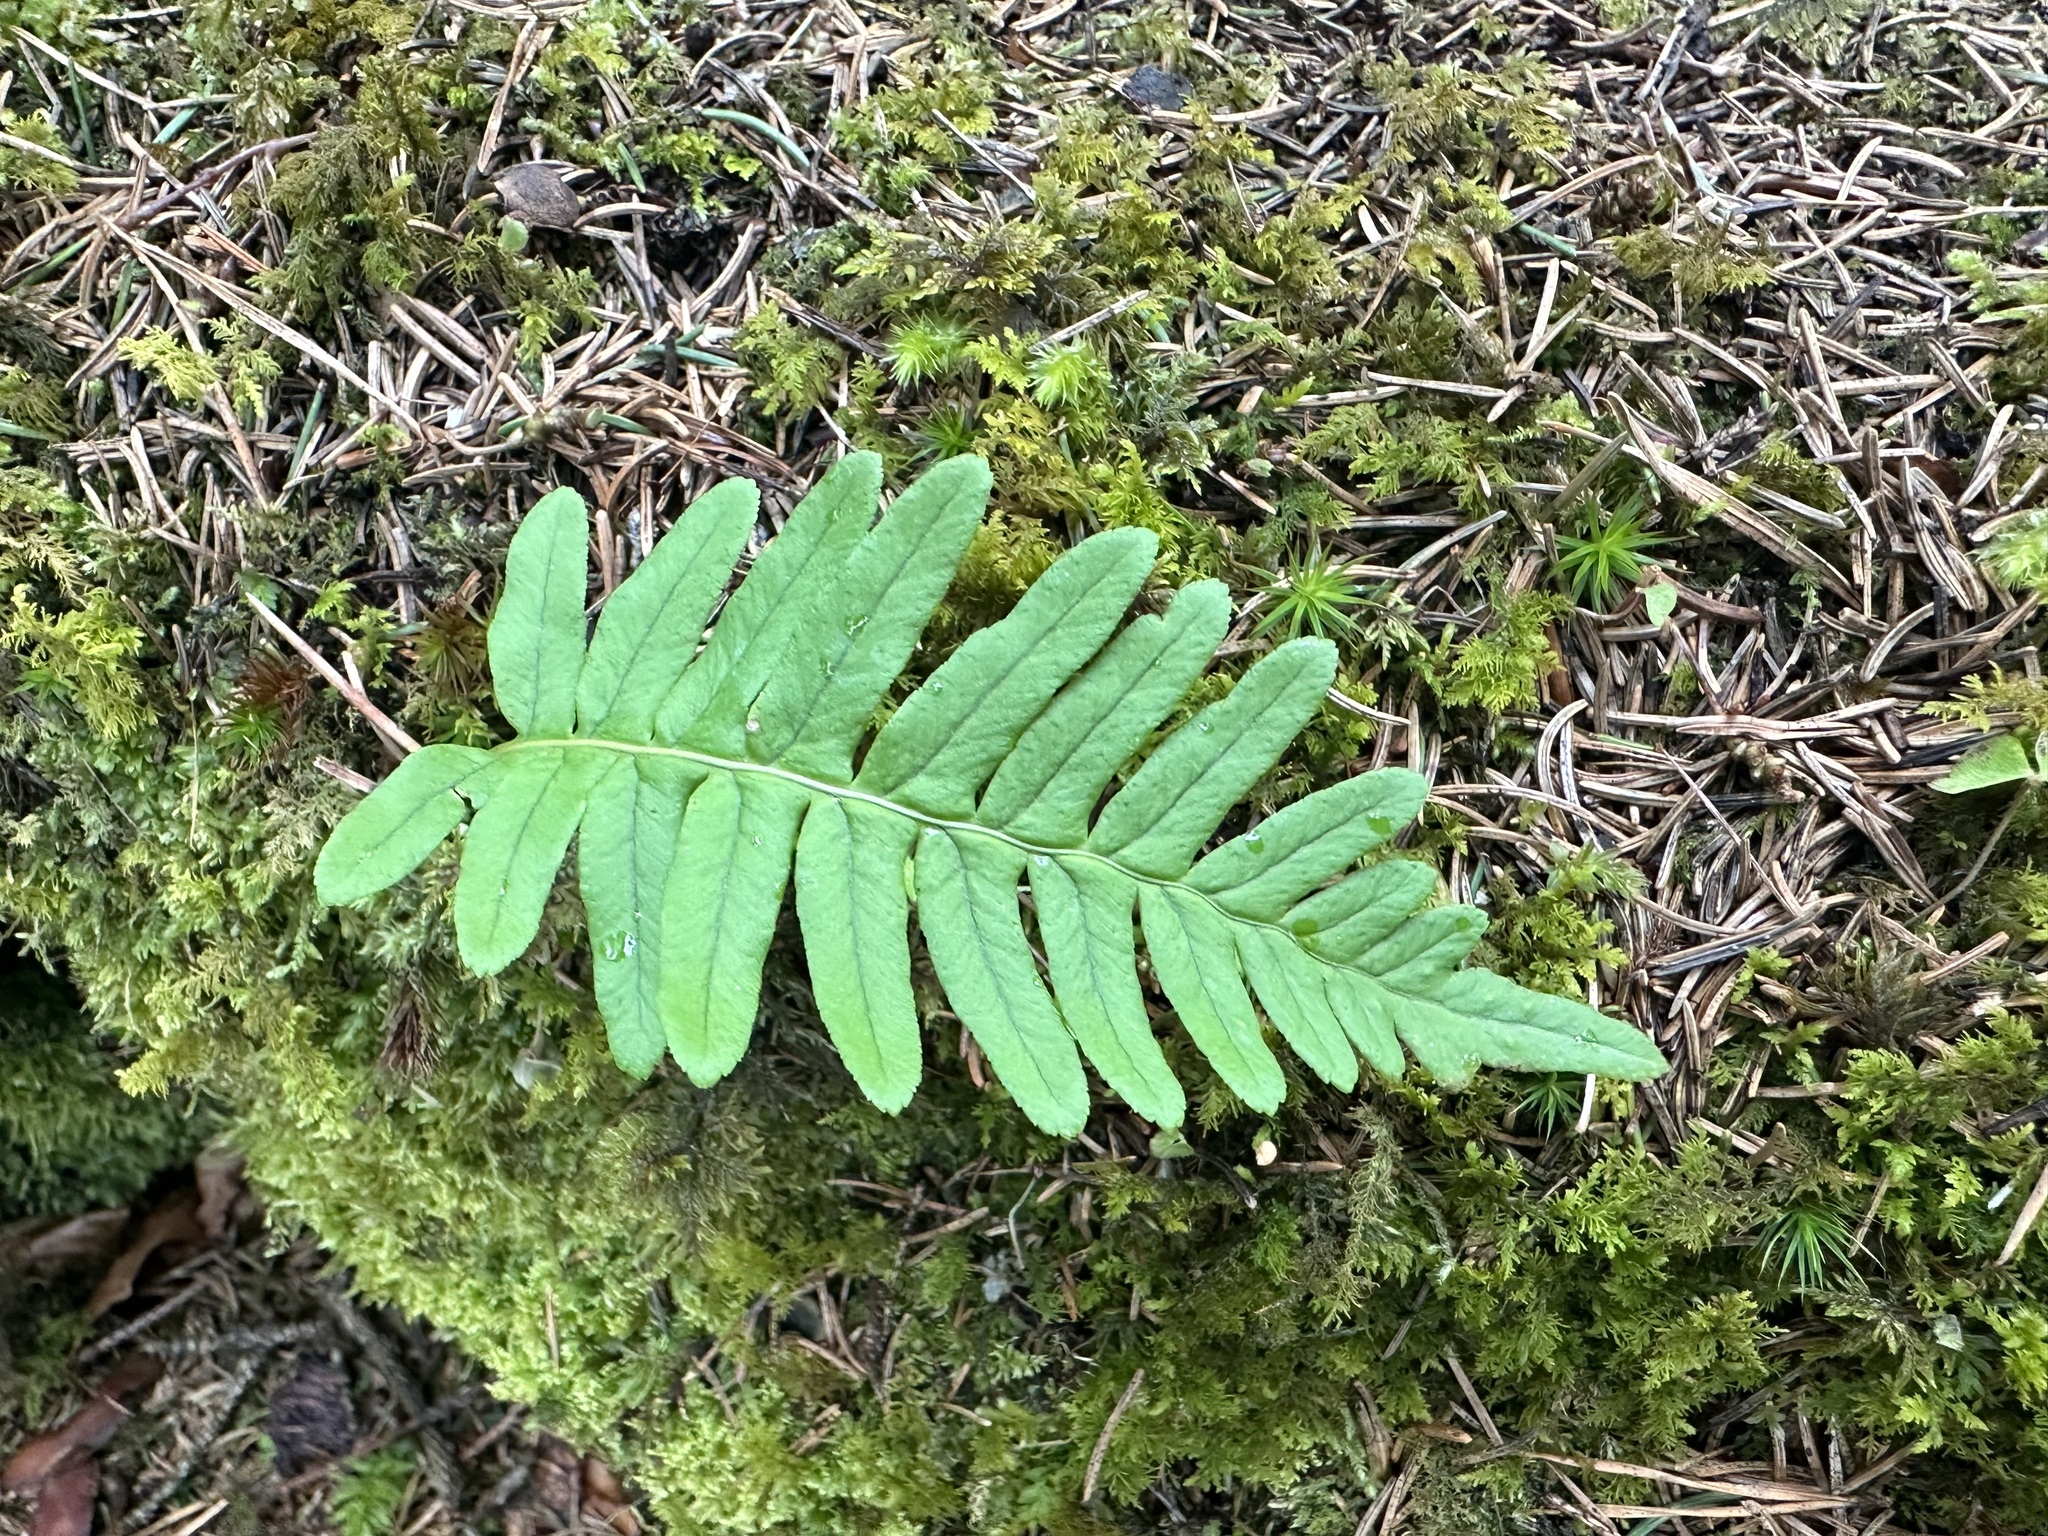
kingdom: Plantae
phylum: Tracheophyta
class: Polypodiopsida
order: Polypodiales
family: Polypodiaceae
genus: Polypodium
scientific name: Polypodium vulgare
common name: Common polypody
